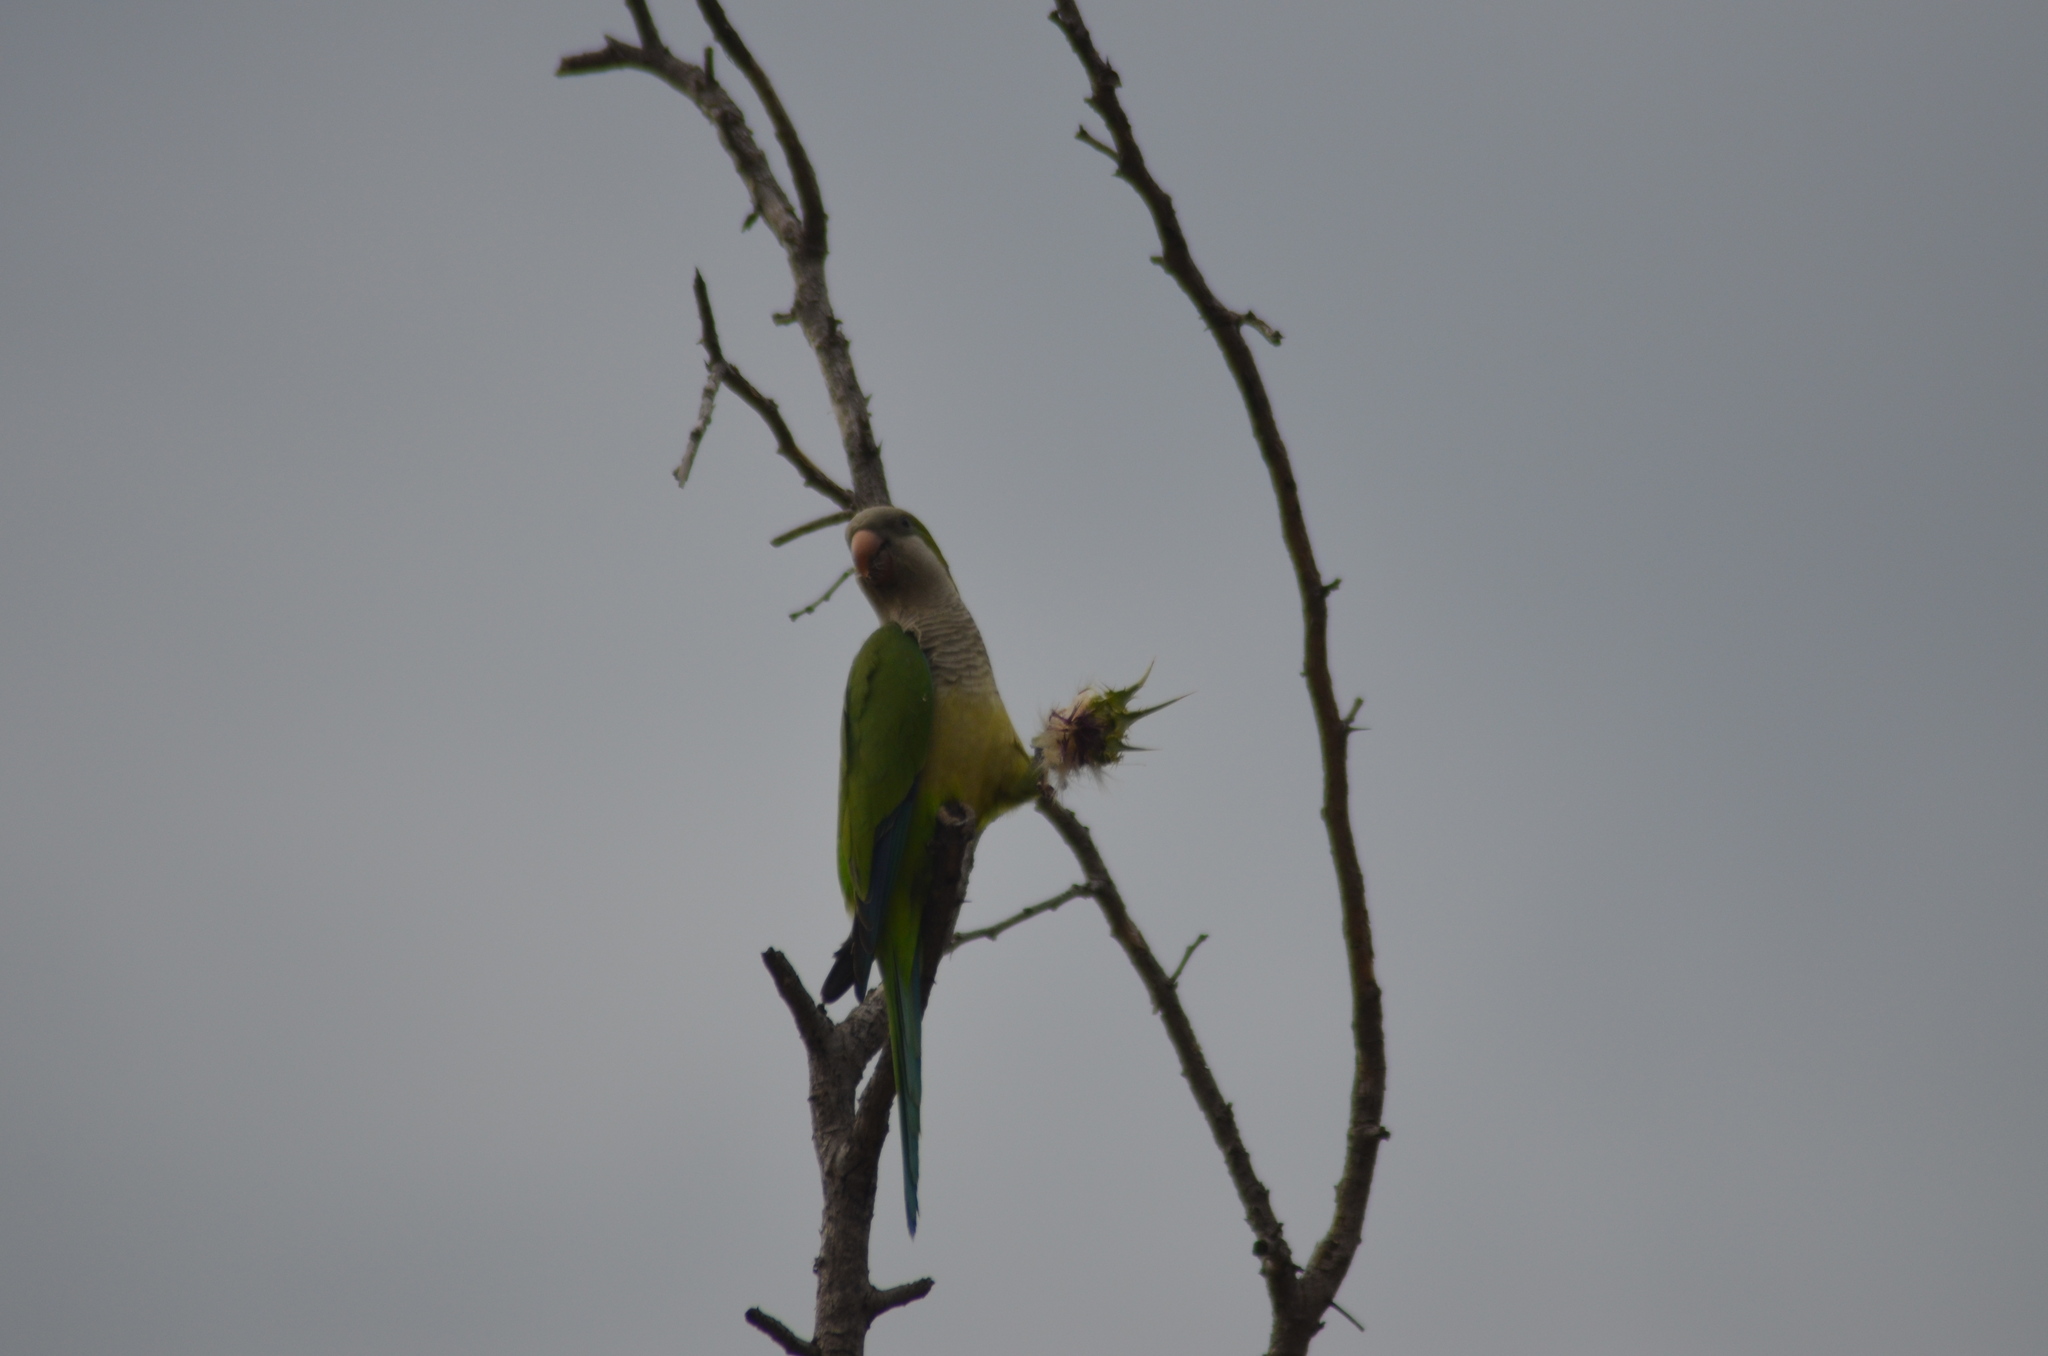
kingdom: Animalia
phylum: Chordata
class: Aves
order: Psittaciformes
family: Psittacidae
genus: Myiopsitta
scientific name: Myiopsitta monachus
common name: Monk parakeet
